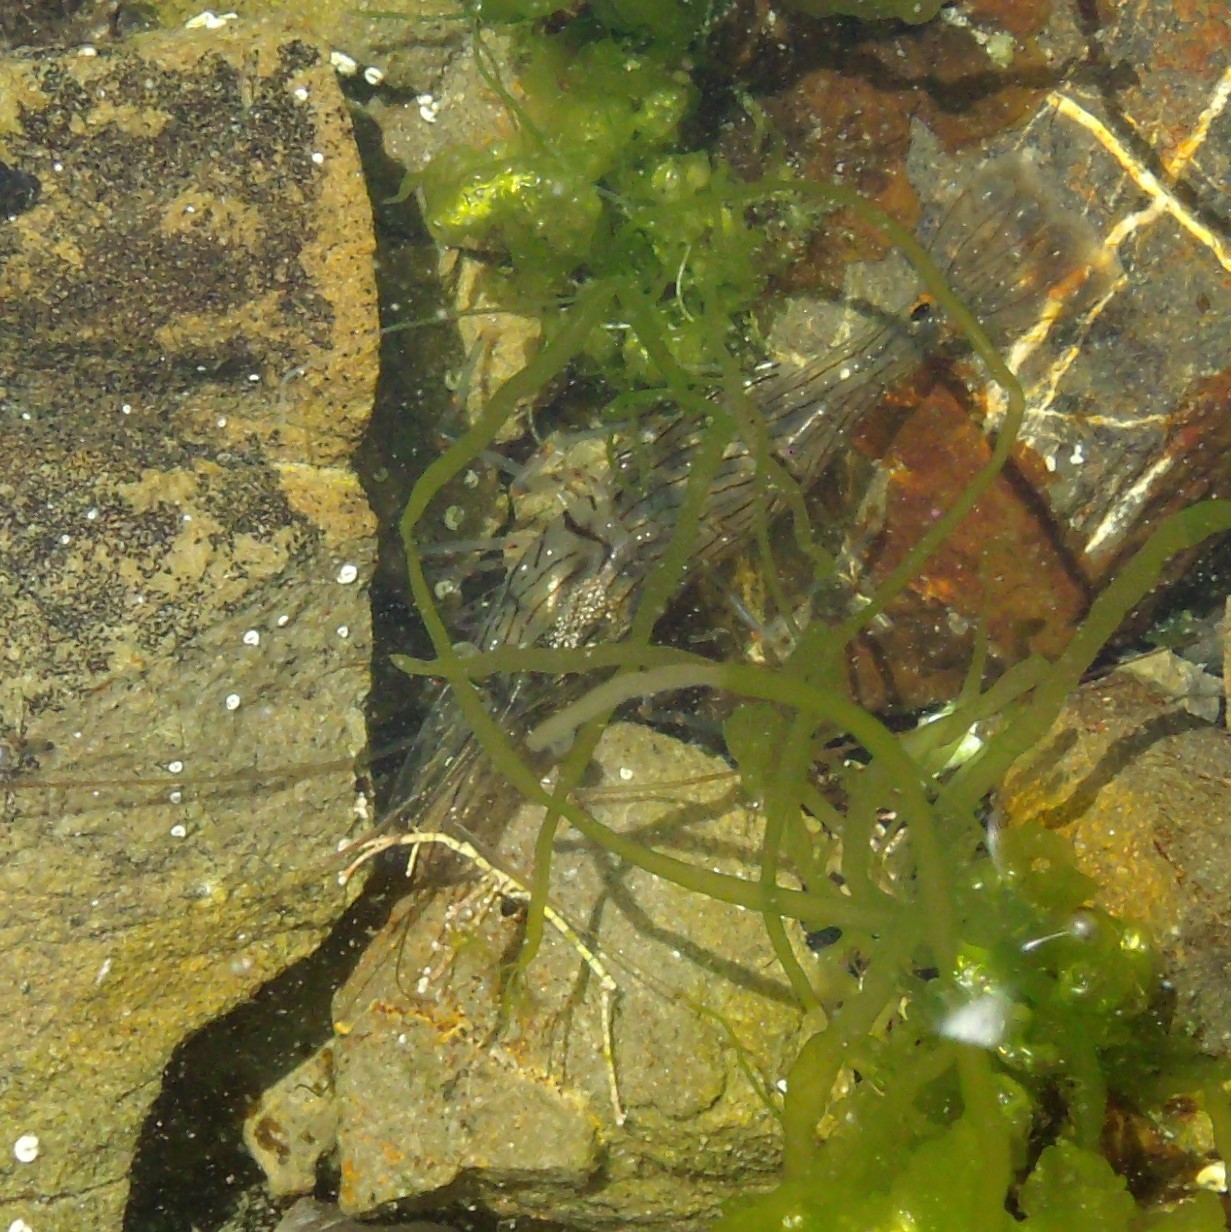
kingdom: Animalia
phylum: Arthropoda
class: Malacostraca
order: Decapoda
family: Palaemonidae
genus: Palaemon
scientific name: Palaemon affinis
